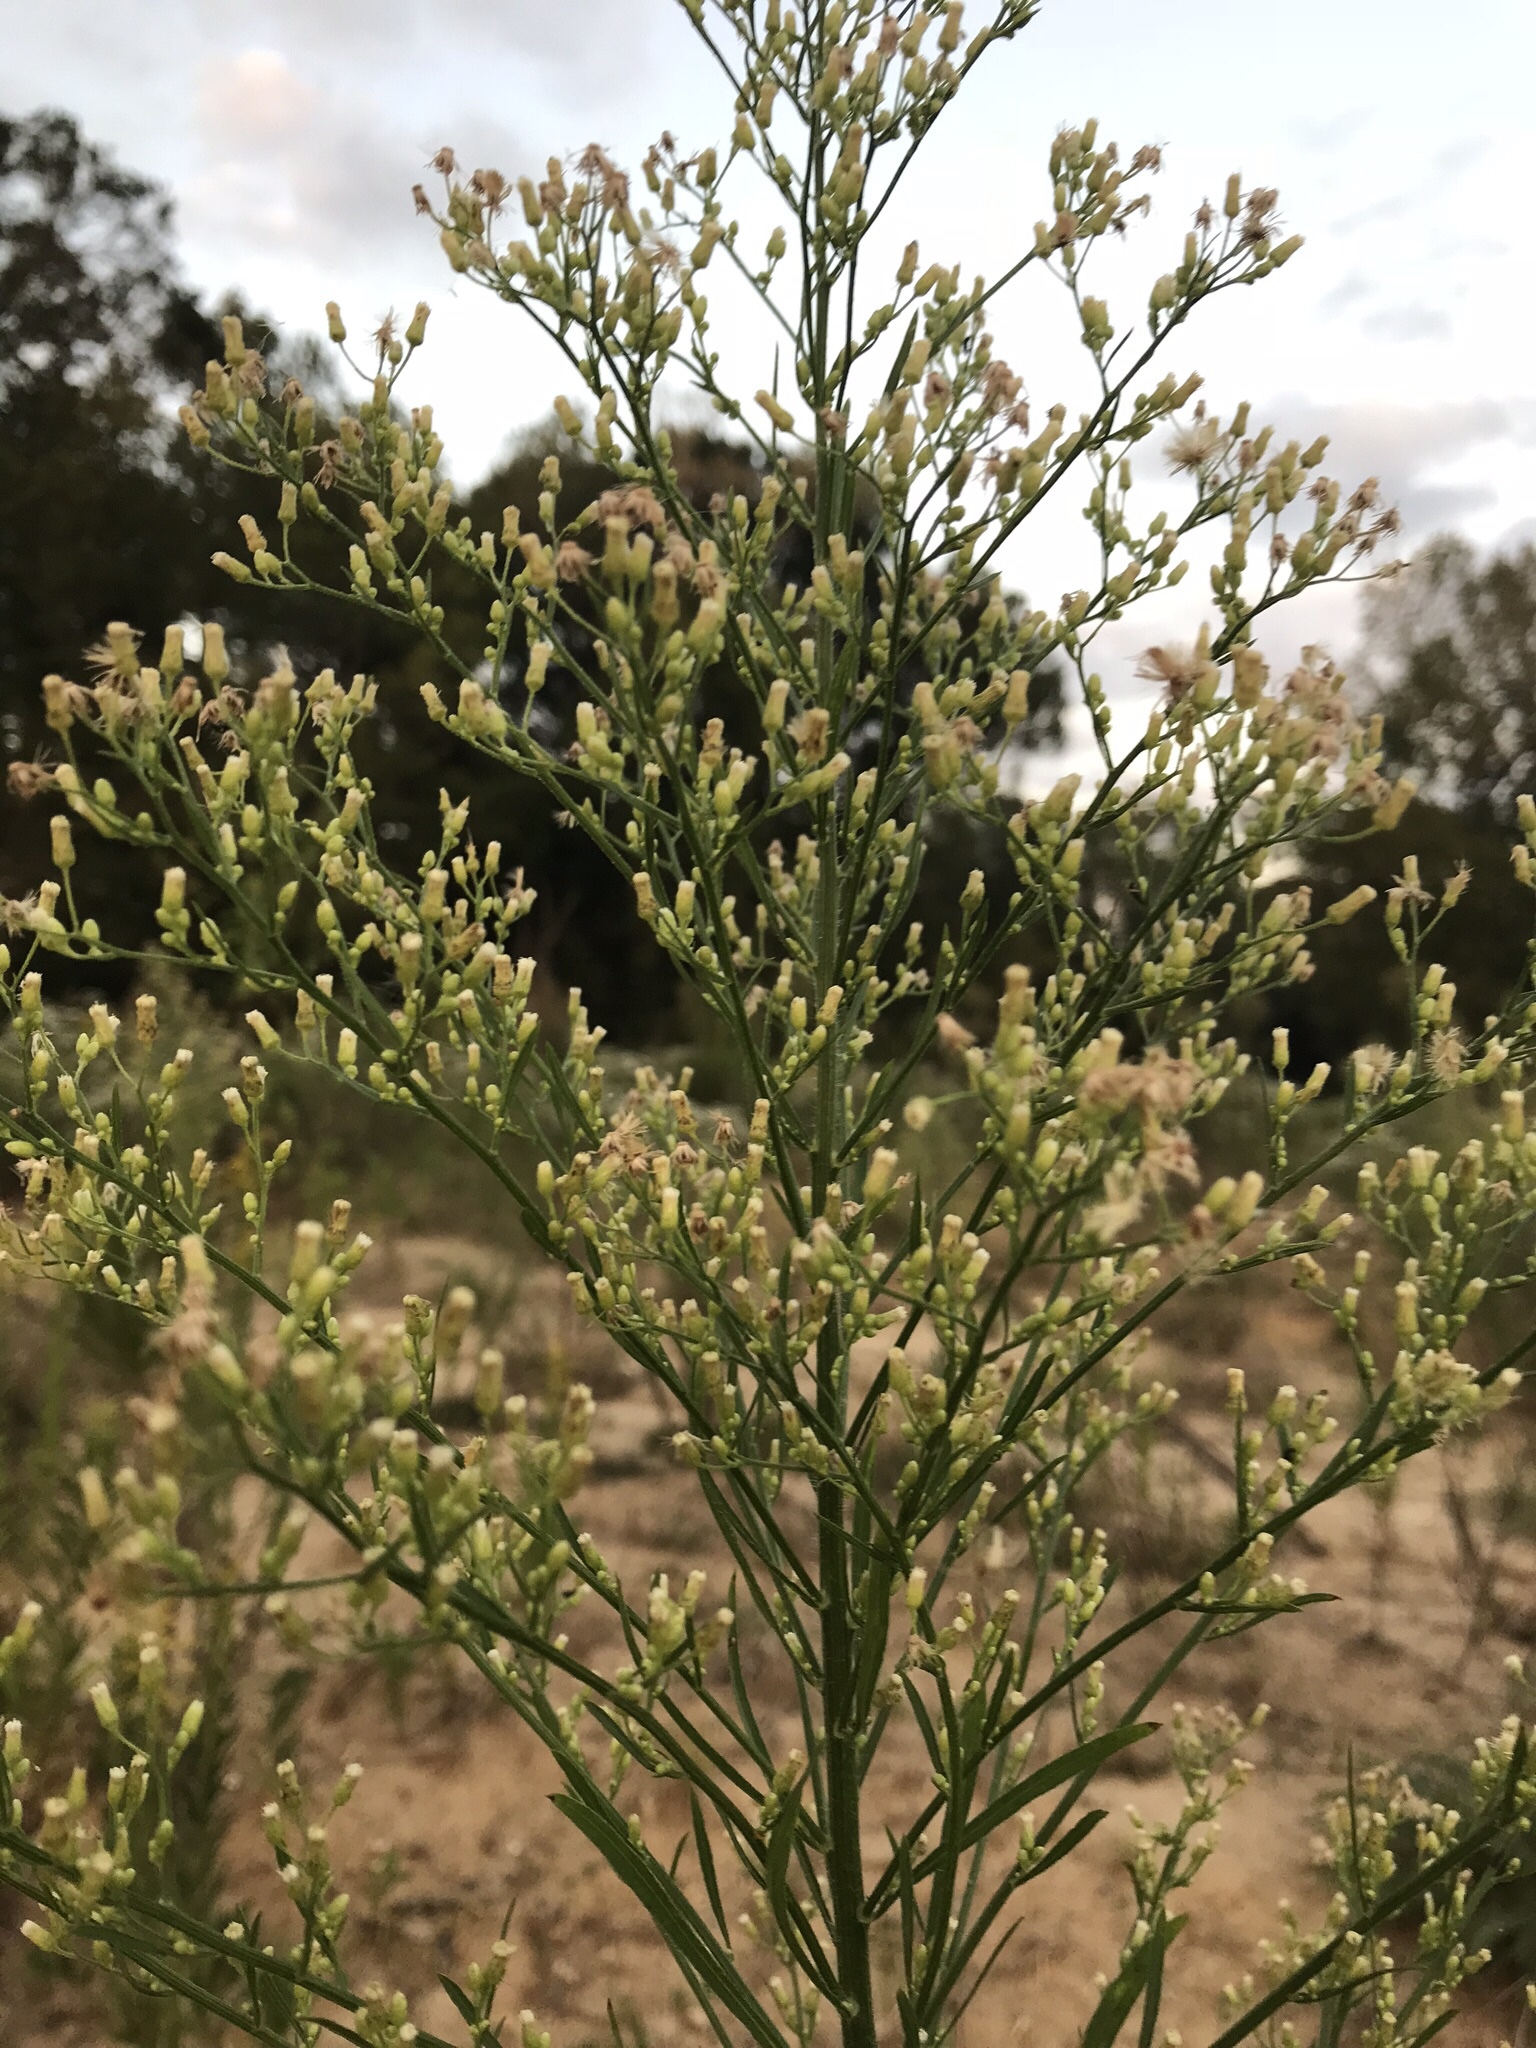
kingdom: Plantae
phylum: Tracheophyta
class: Magnoliopsida
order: Asterales
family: Asteraceae
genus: Erigeron
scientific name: Erigeron canadensis
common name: Canadian fleabane
